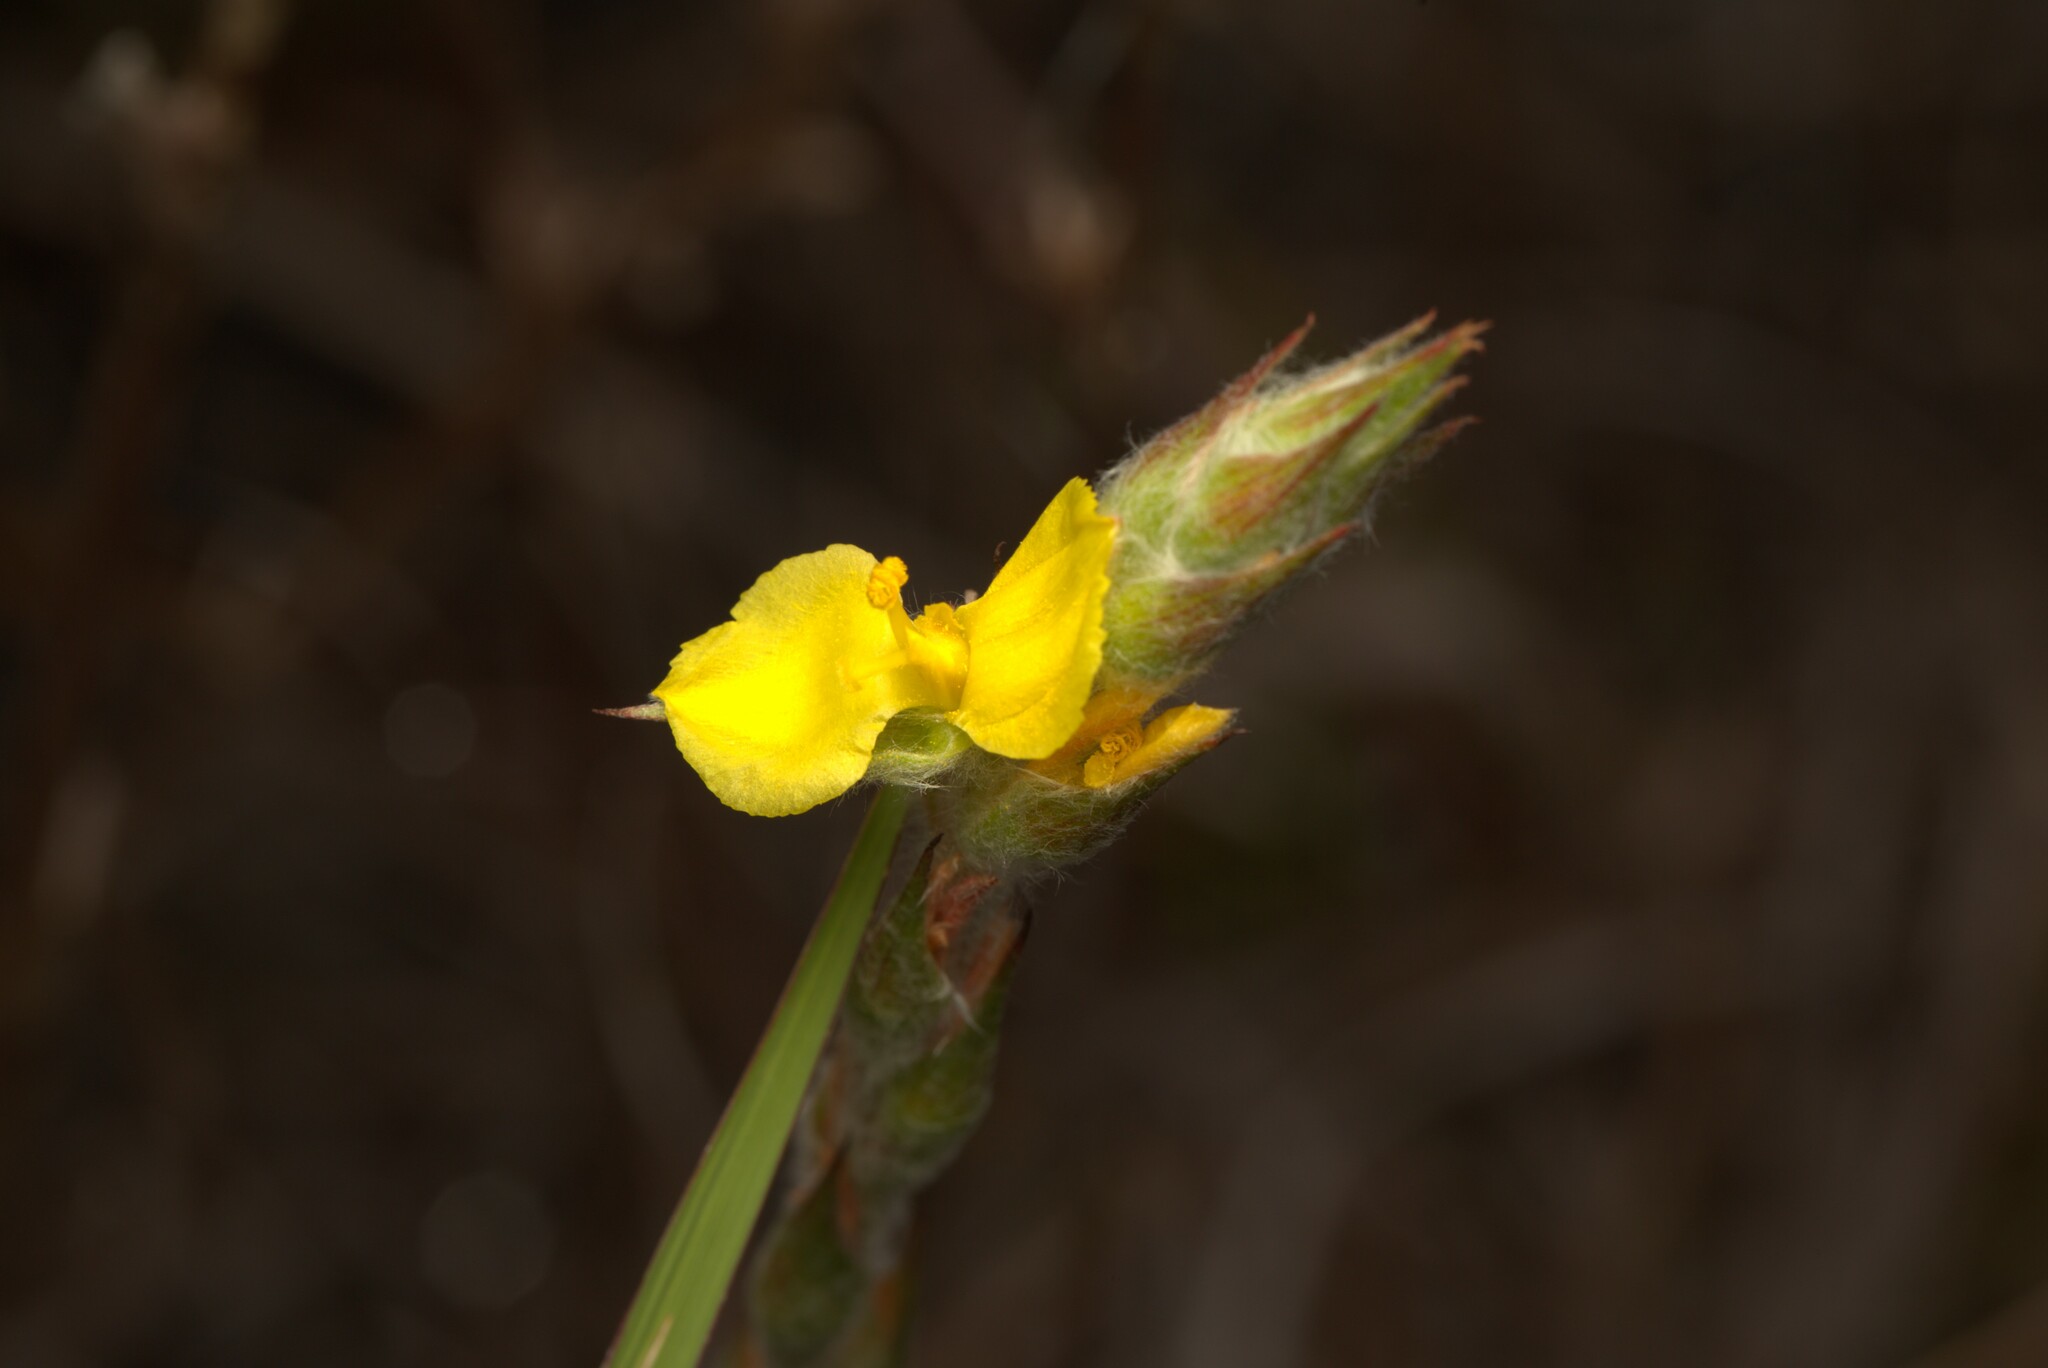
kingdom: Plantae
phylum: Tracheophyta
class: Liliopsida
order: Commelinales
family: Philydraceae
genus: Philydrum
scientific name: Philydrum lanuginosum
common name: Woolly frog's mouth
